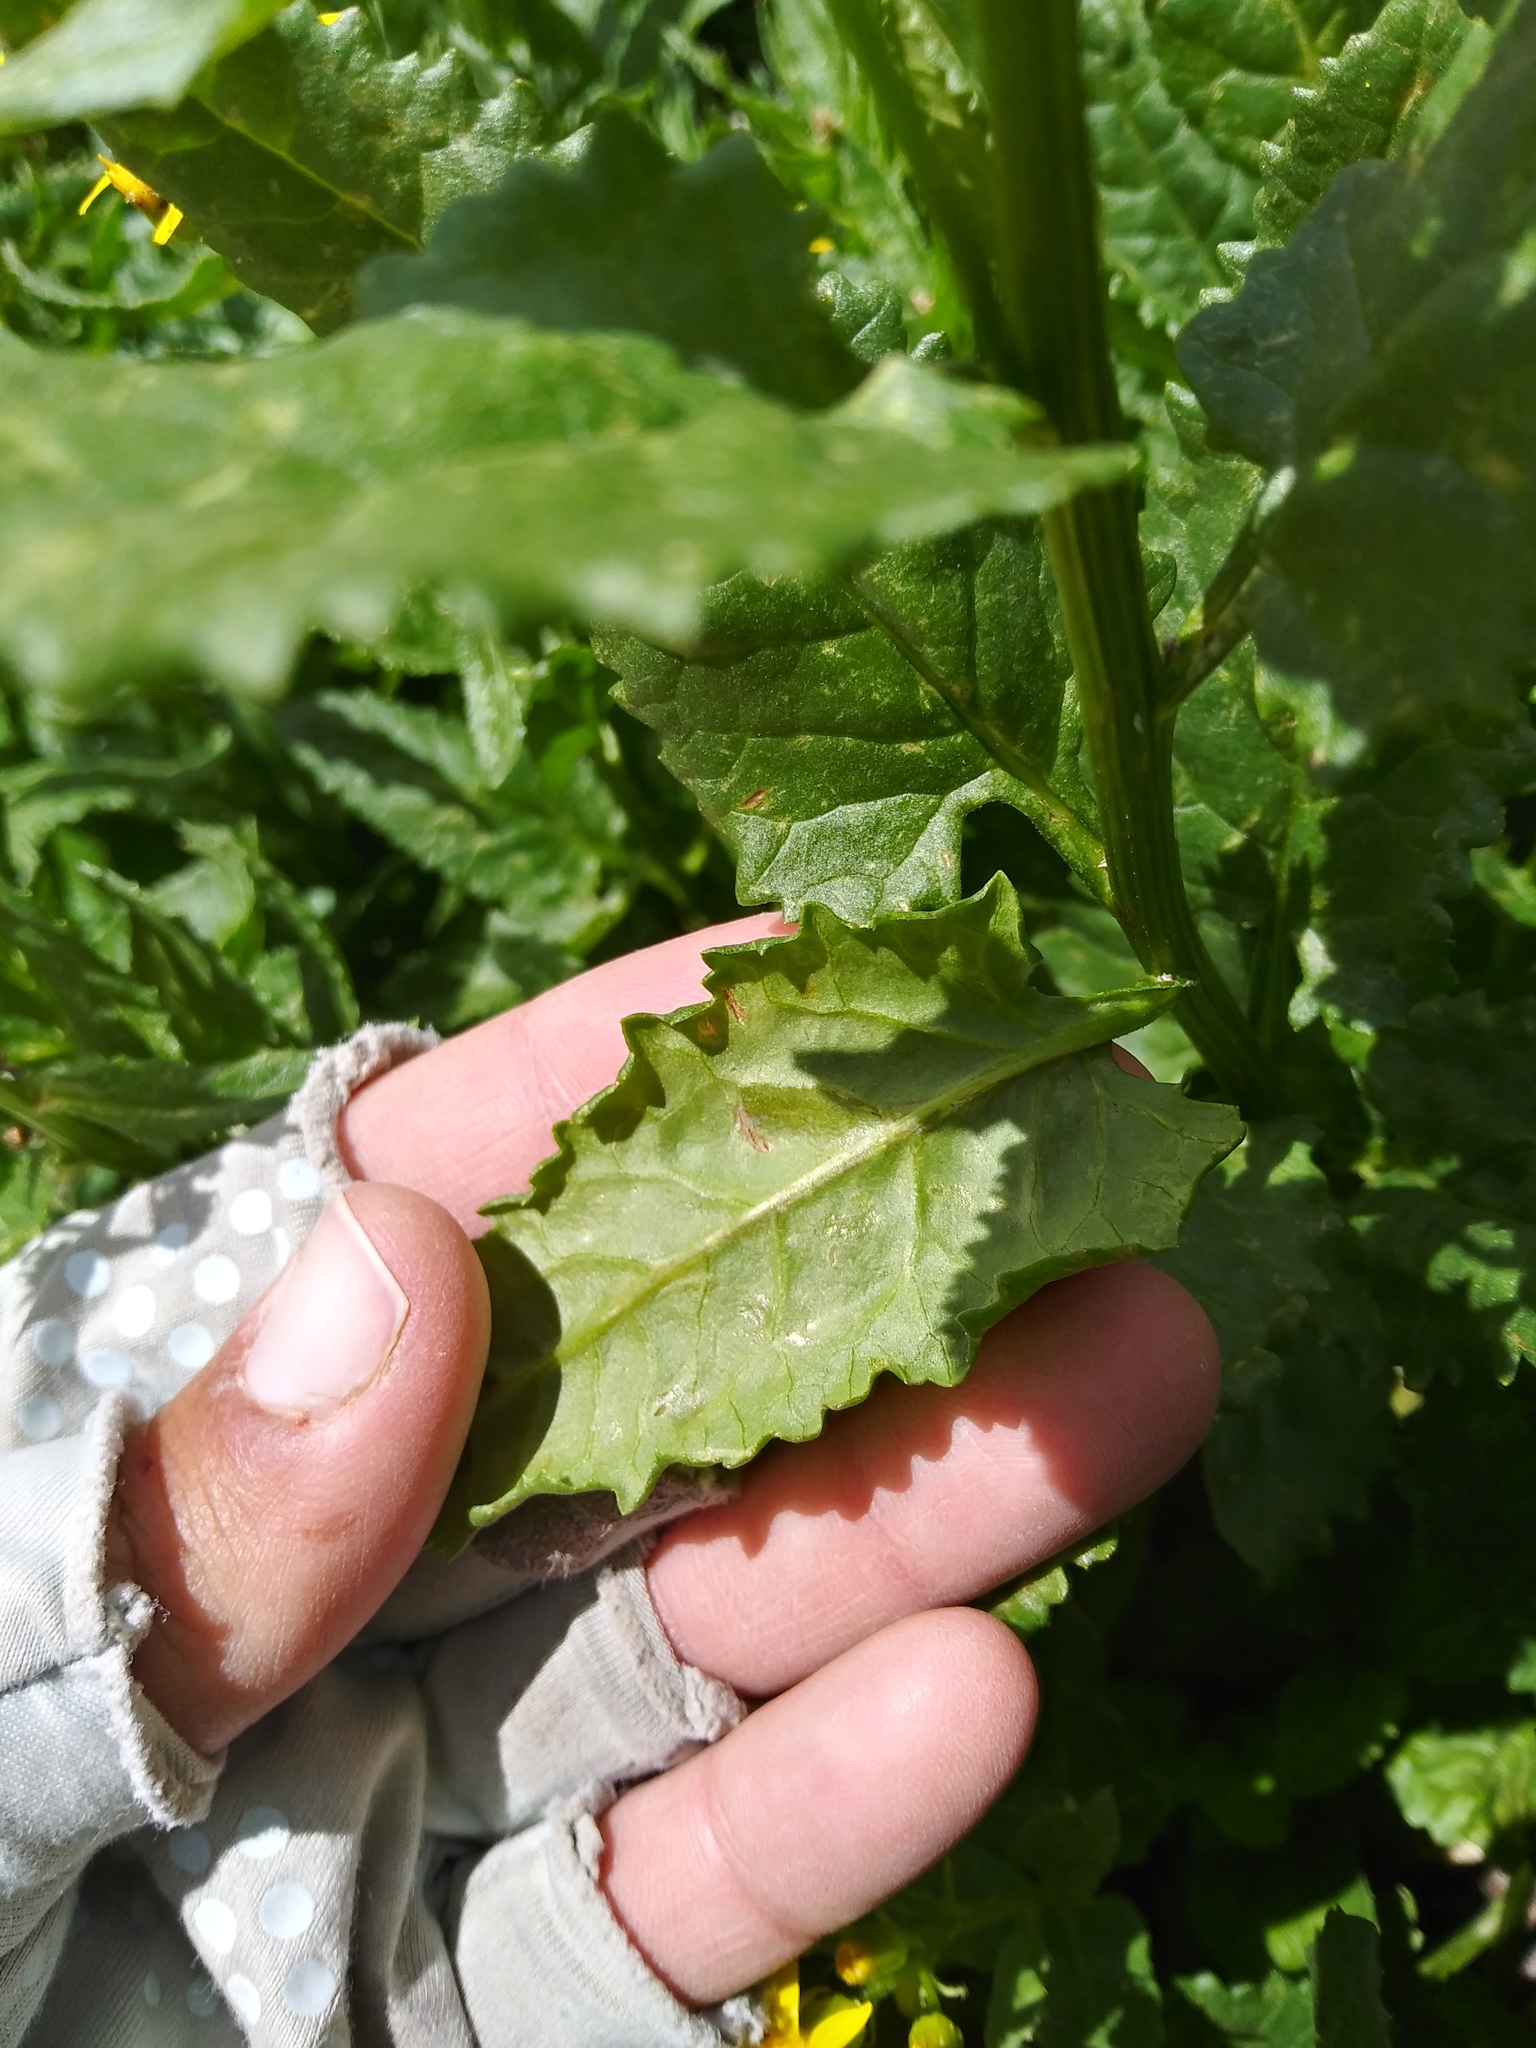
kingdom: Plantae
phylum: Tracheophyta
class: Magnoliopsida
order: Asterales
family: Asteraceae
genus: Senecio
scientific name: Senecio triangularis
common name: Arrowleaf butterweed
